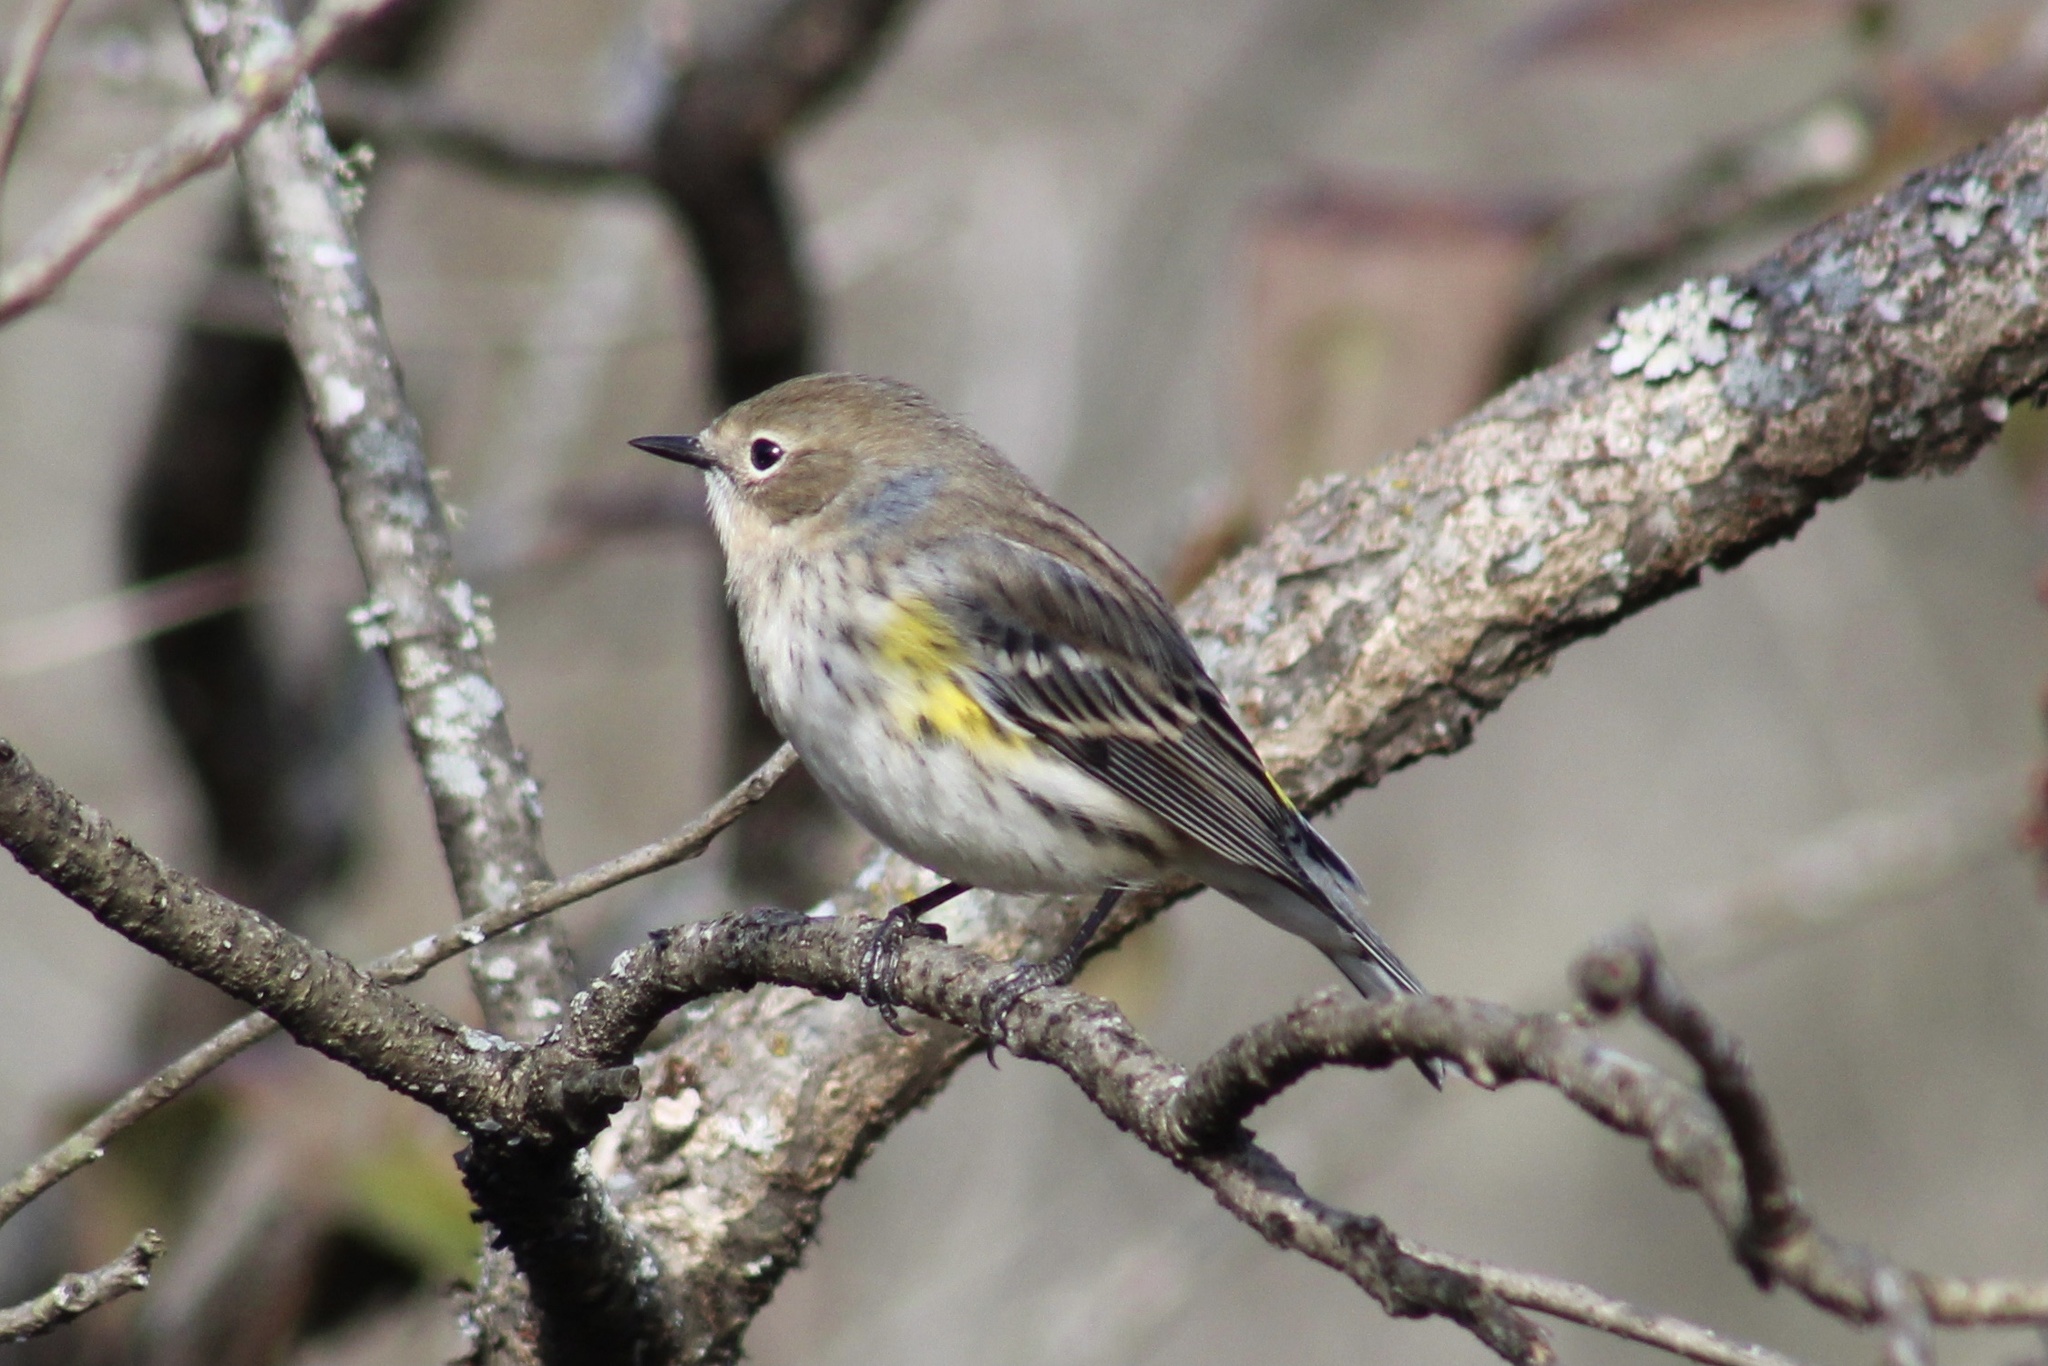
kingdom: Animalia
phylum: Chordata
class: Aves
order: Passeriformes
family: Parulidae
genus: Setophaga
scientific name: Setophaga coronata
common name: Myrtle warbler
